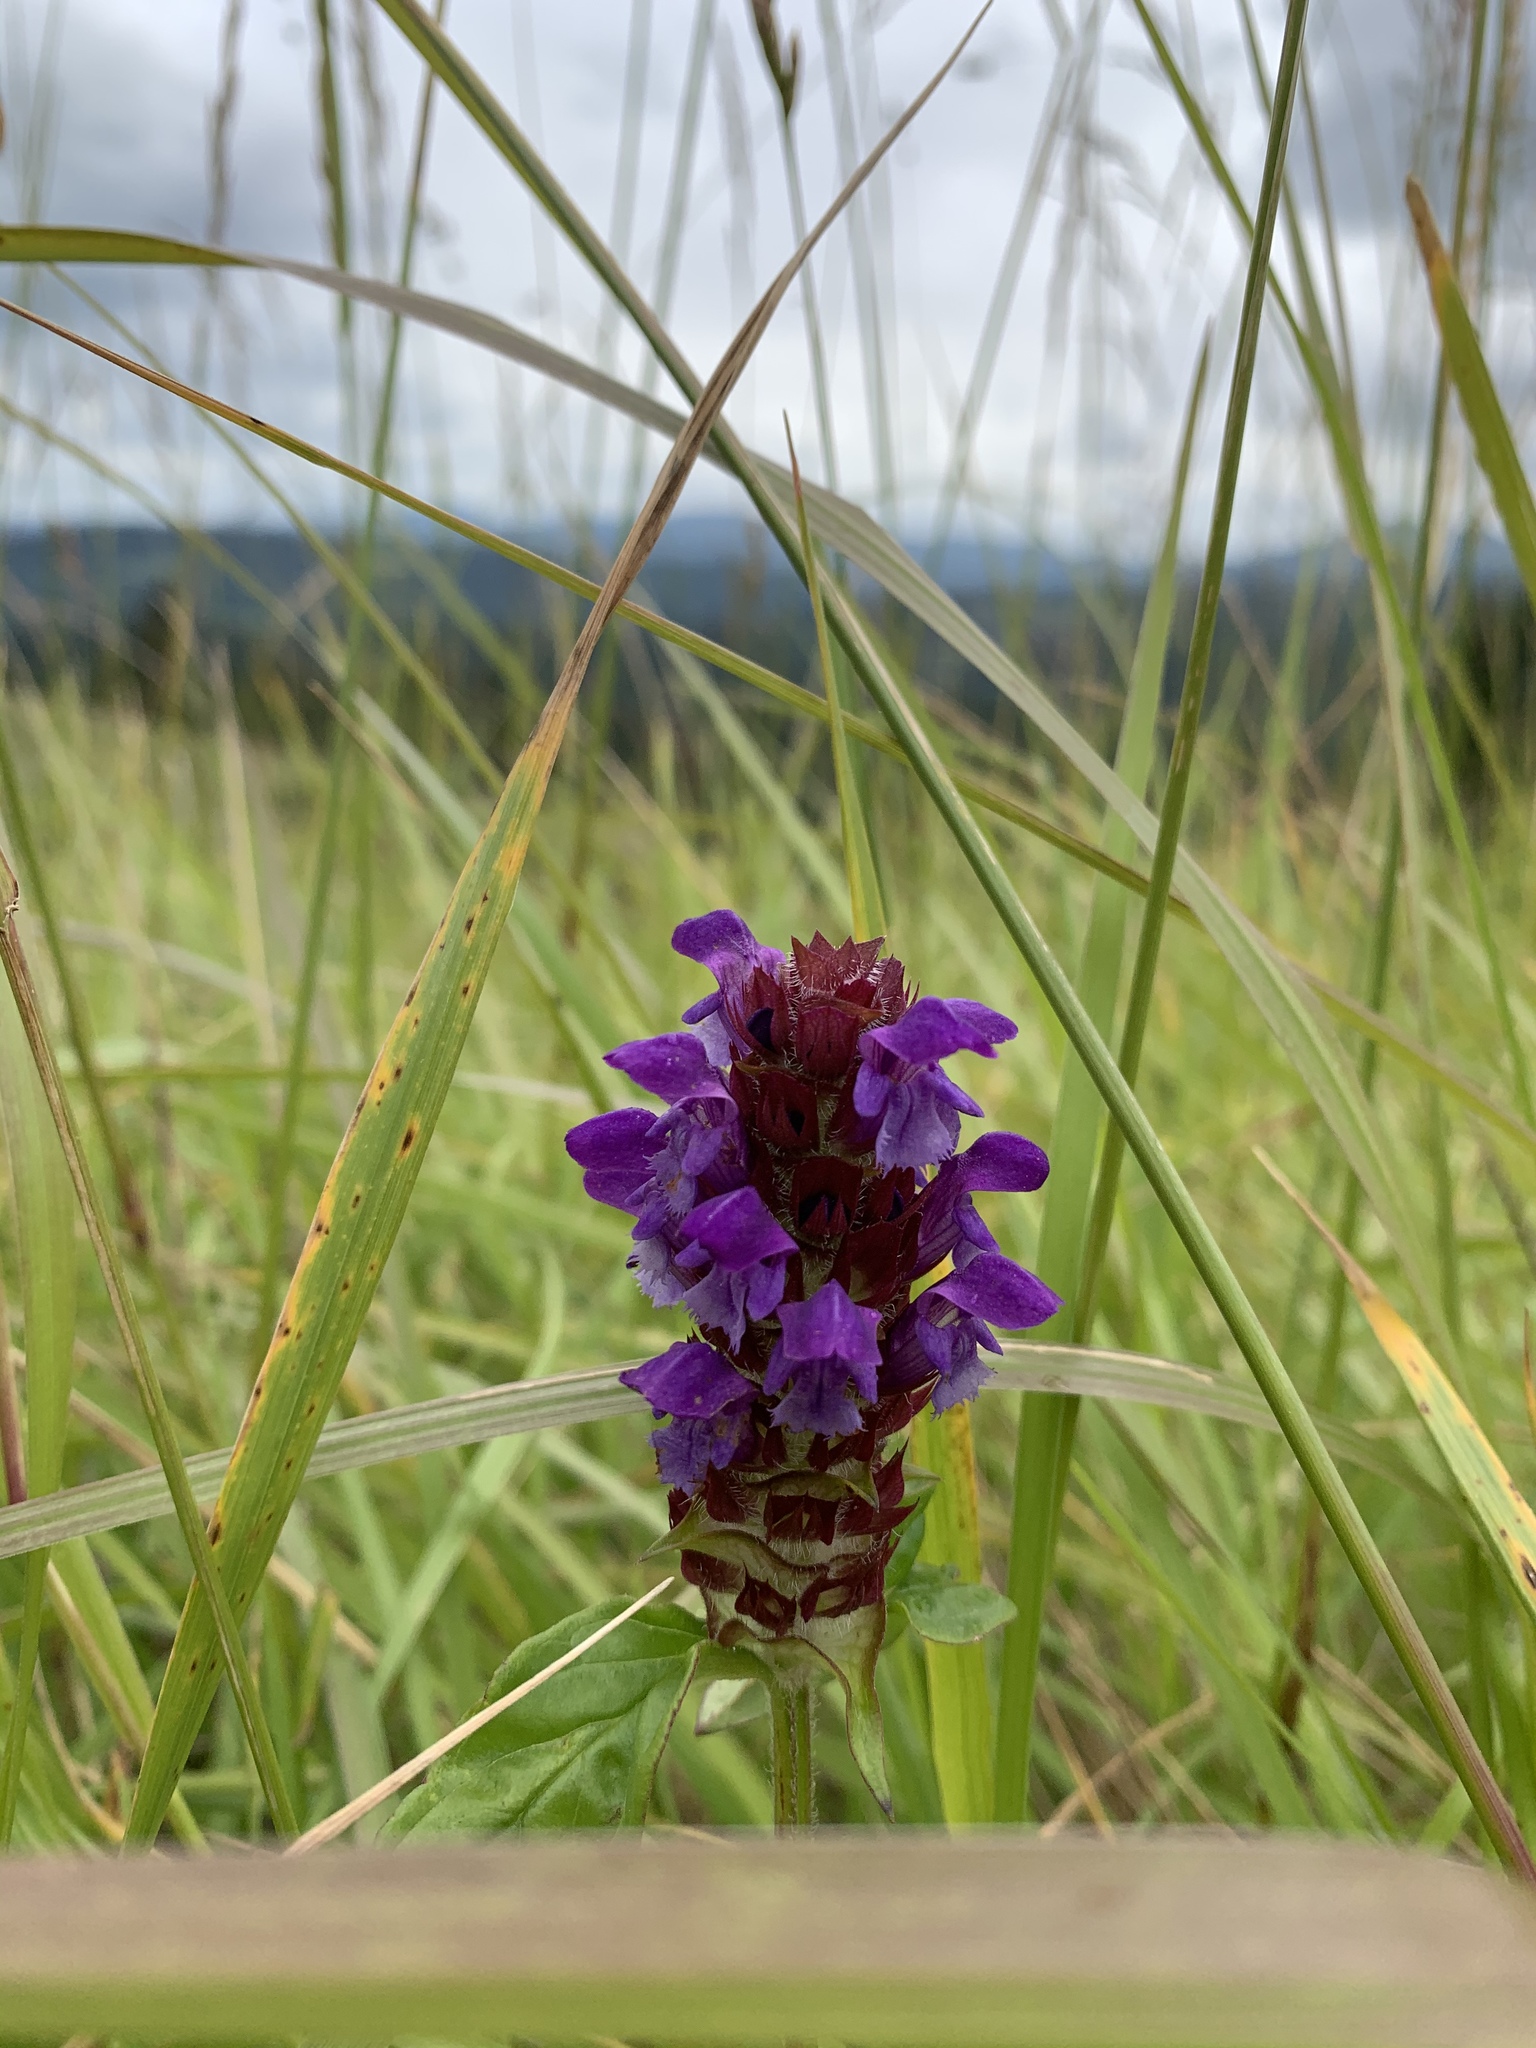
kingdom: Plantae
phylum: Tracheophyta
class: Magnoliopsida
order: Lamiales
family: Lamiaceae
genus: Prunella
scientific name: Prunella vulgaris
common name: Heal-all
